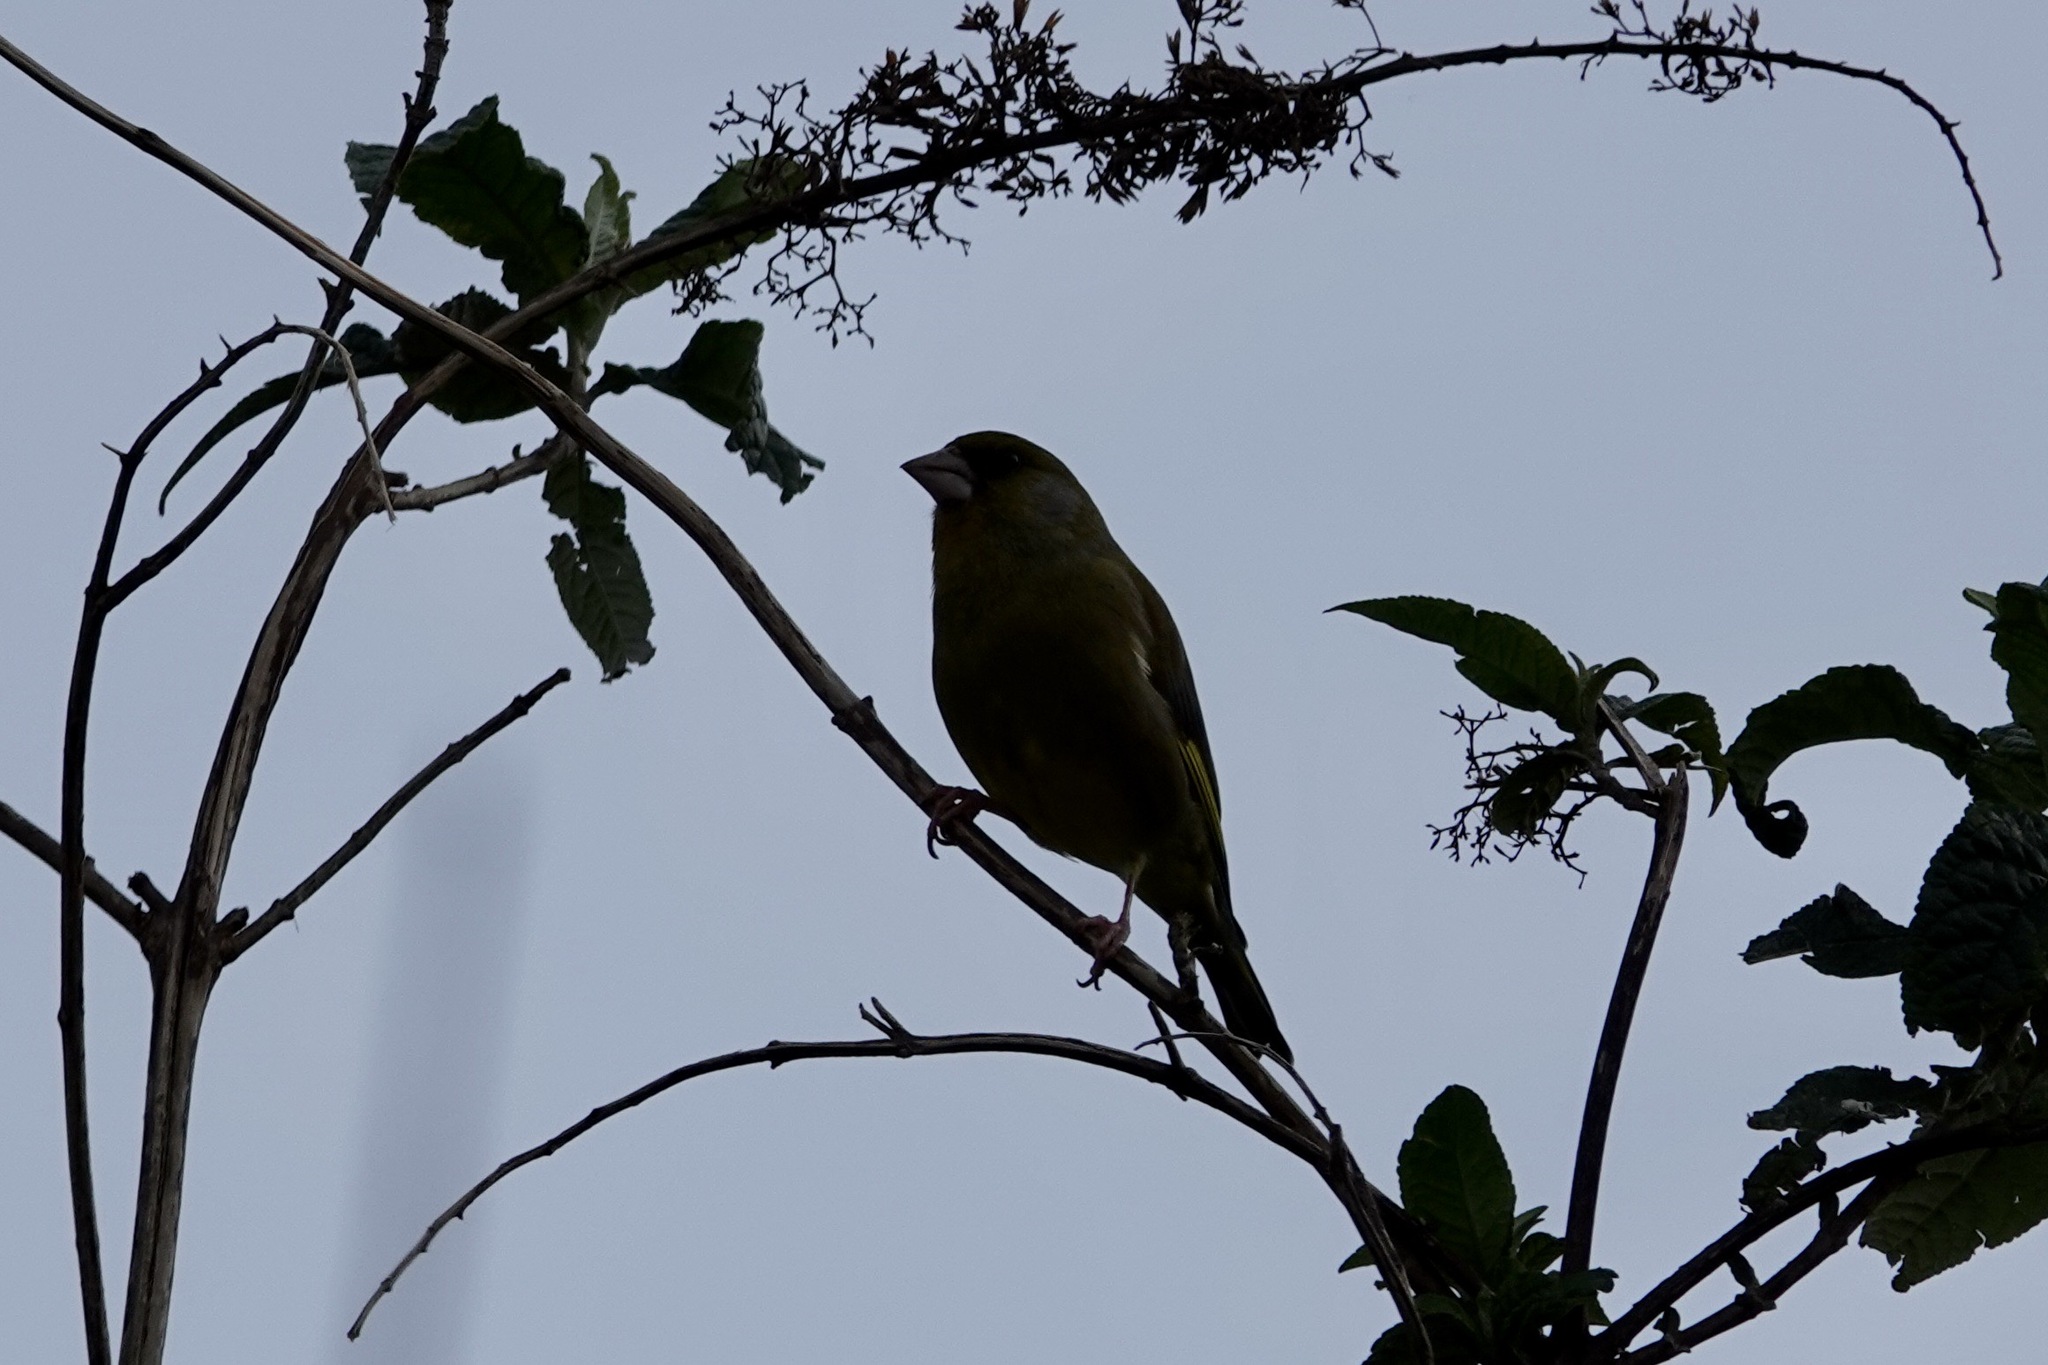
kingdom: Plantae
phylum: Tracheophyta
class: Liliopsida
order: Poales
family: Poaceae
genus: Chloris
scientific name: Chloris chloris
